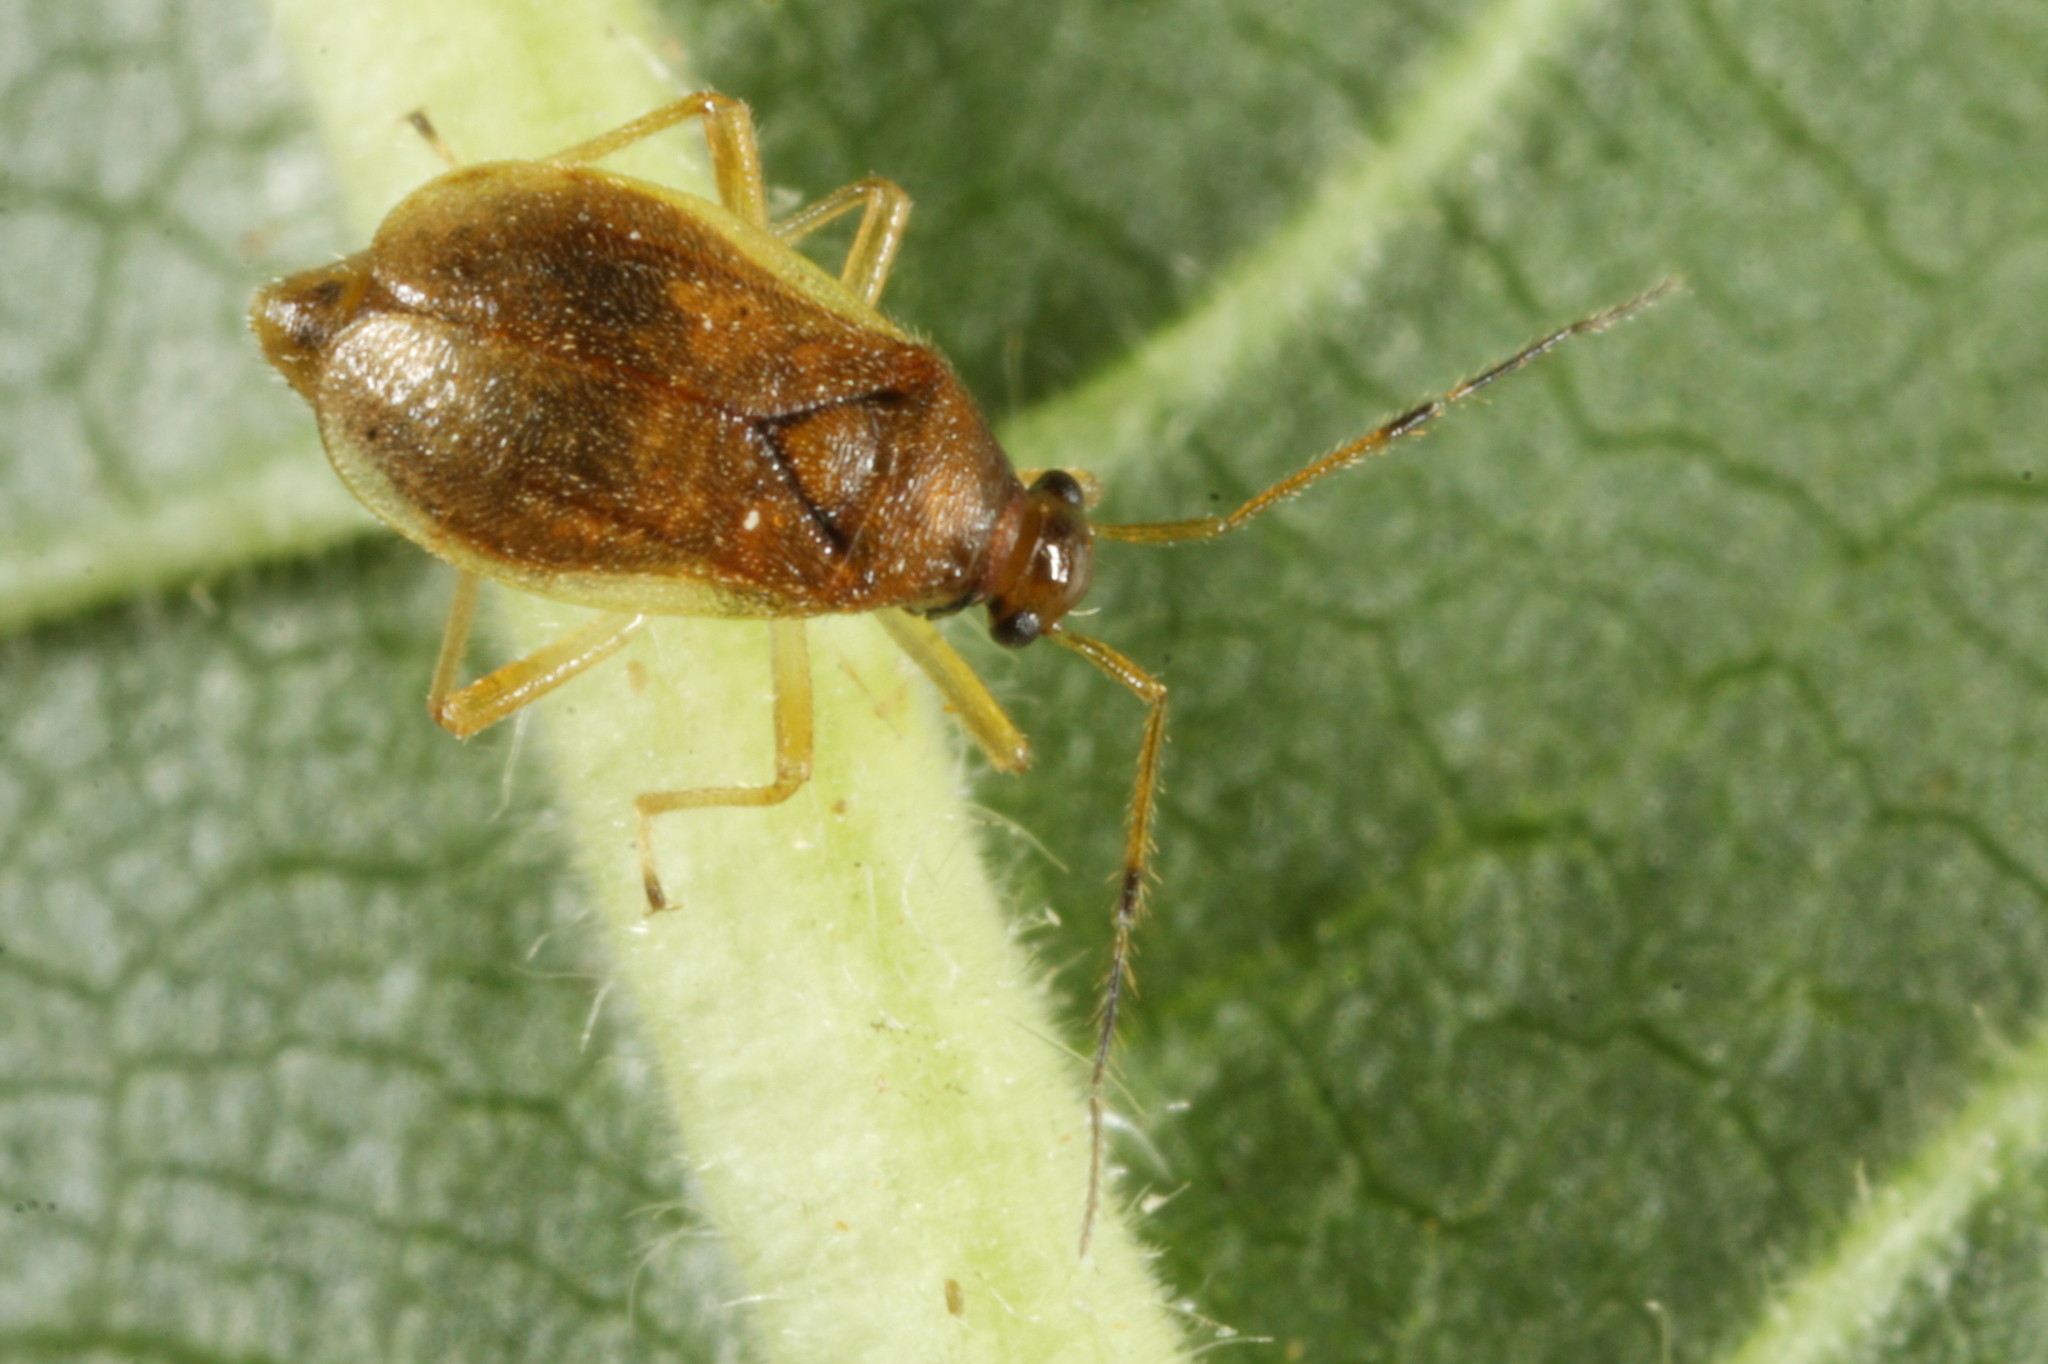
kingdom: Animalia
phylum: Arthropoda
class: Insecta
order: Hemiptera
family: Miridae
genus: Bryocoris
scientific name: Bryocoris pteridis
